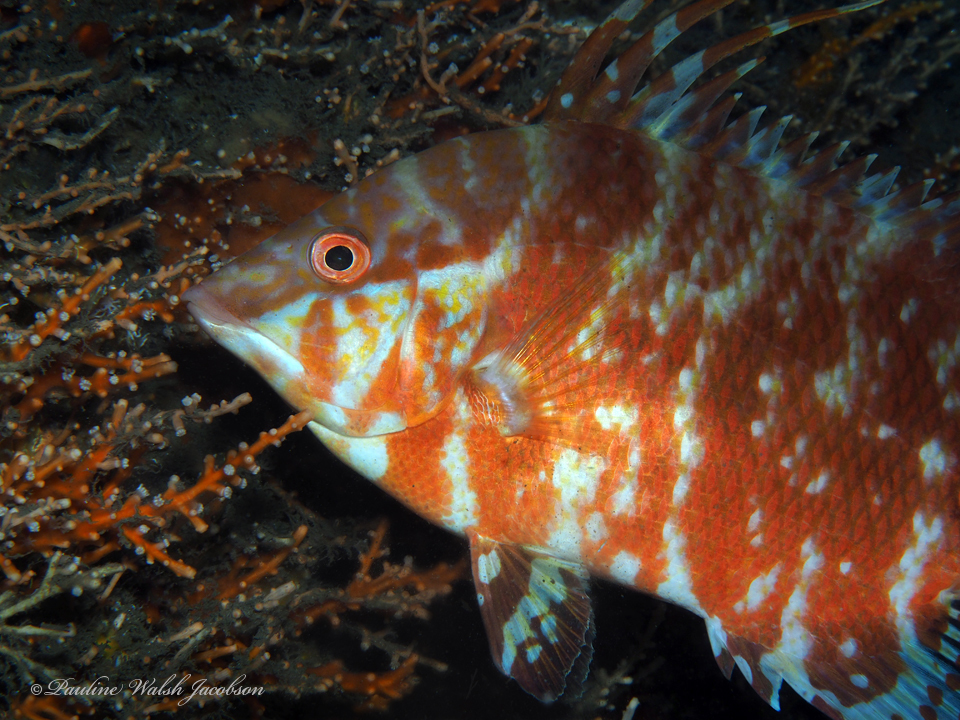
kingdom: Animalia
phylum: Chordata
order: Perciformes
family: Labridae
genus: Lachnolaimus
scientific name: Lachnolaimus maximus
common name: Hogfish
